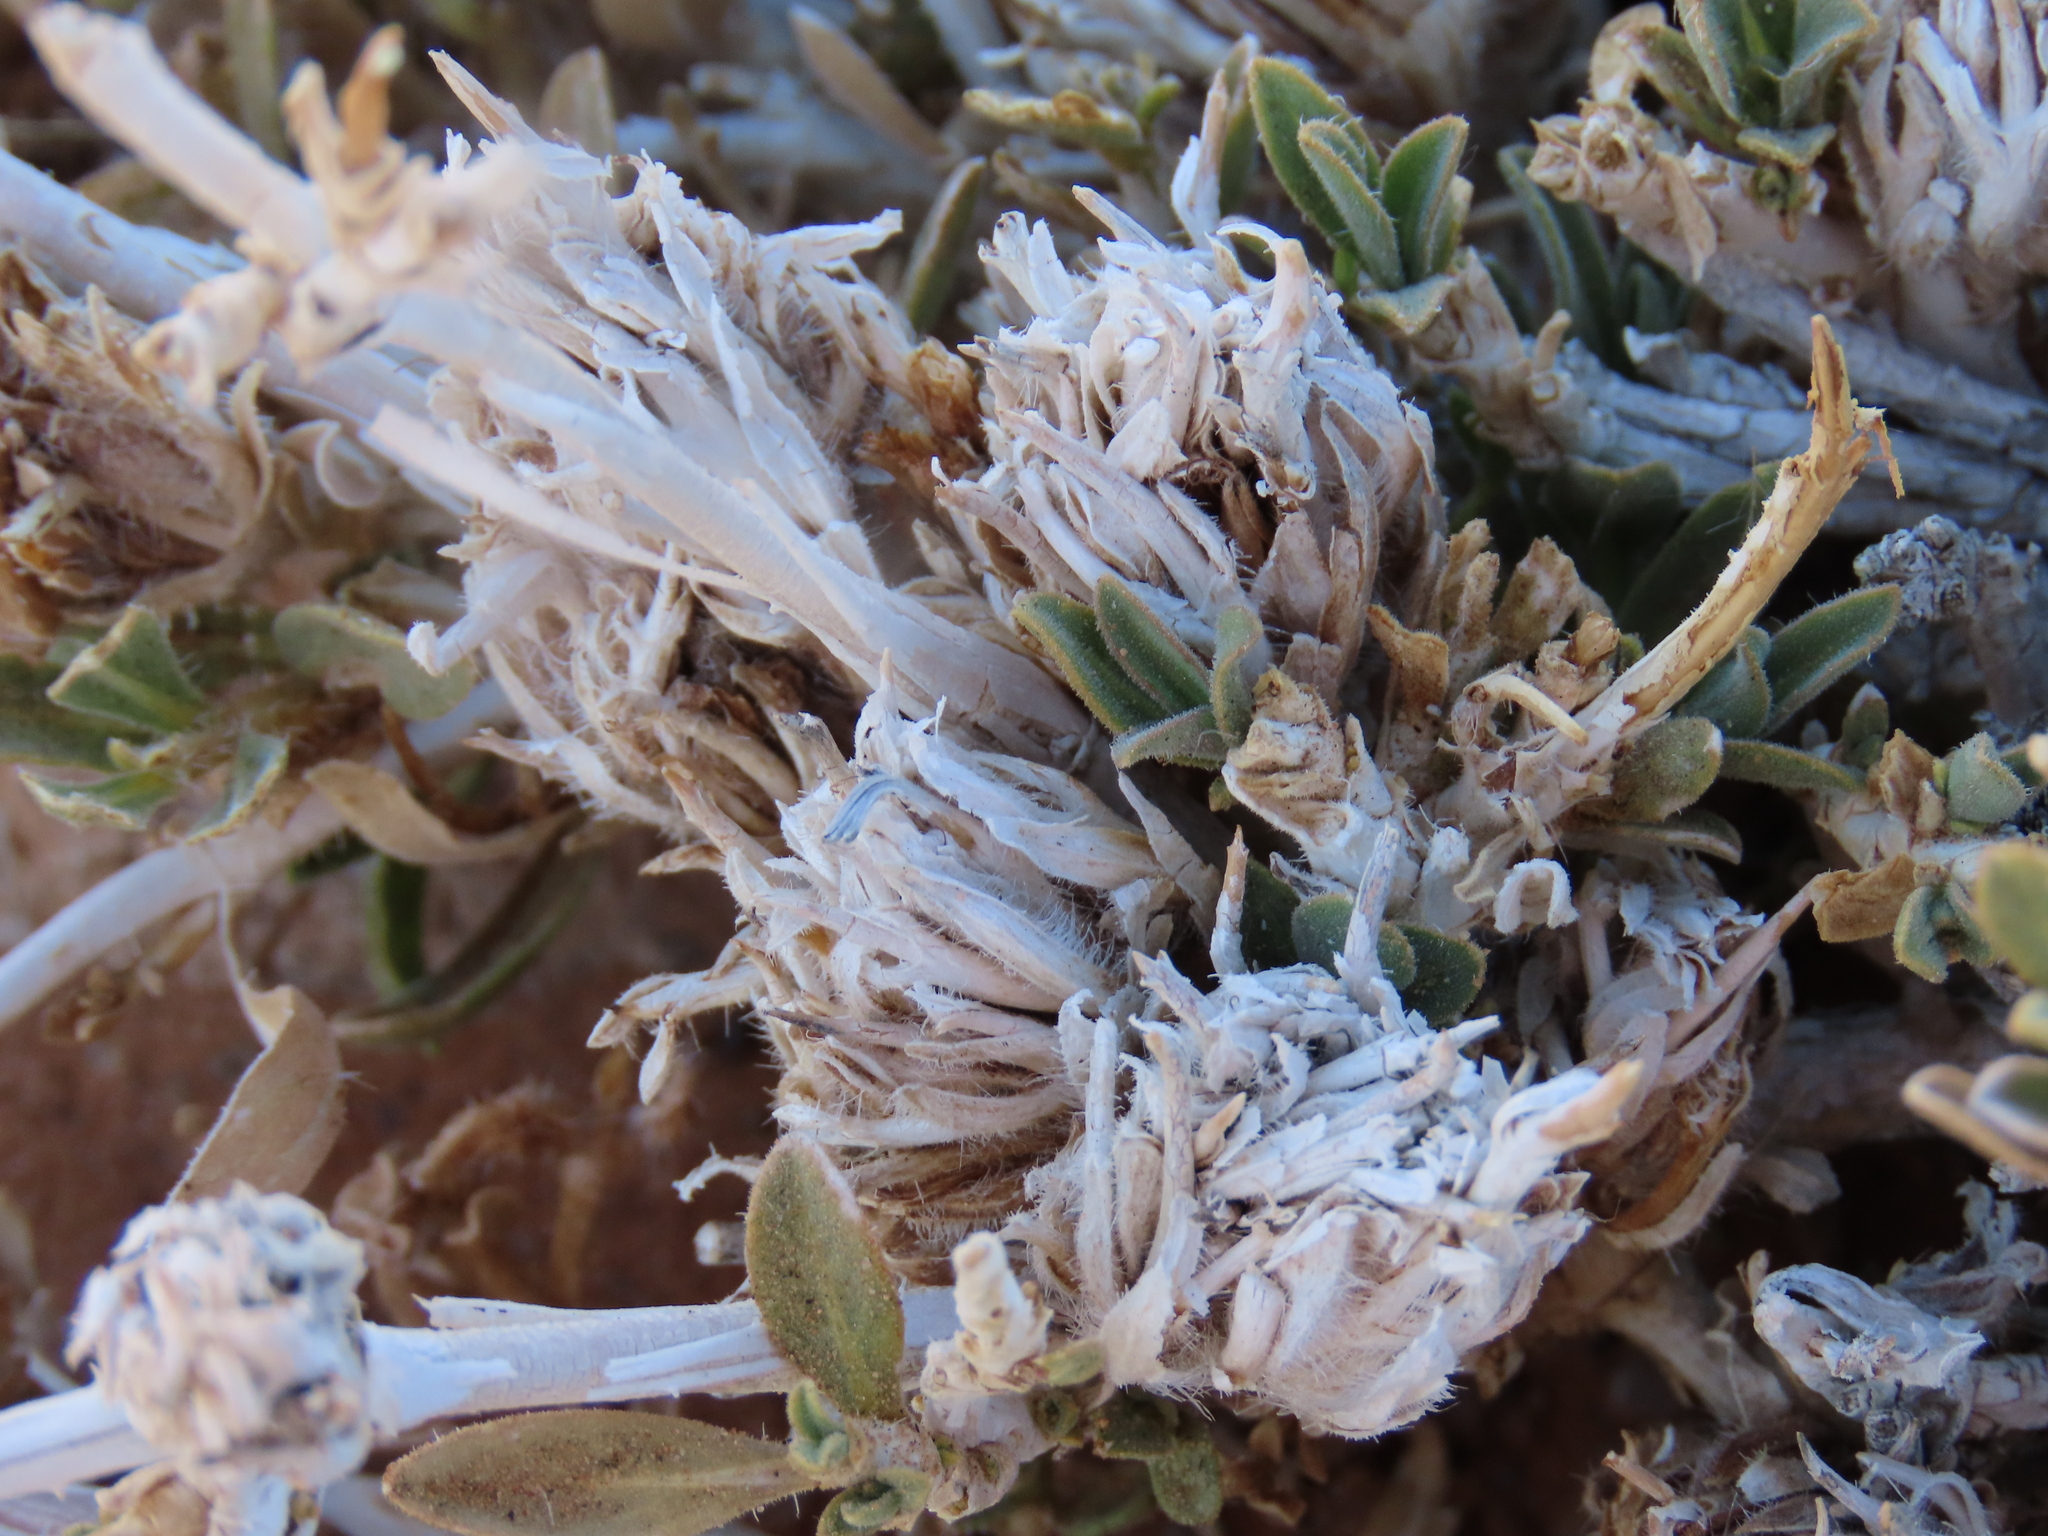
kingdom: Plantae
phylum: Tracheophyta
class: Magnoliopsida
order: Lamiales
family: Acanthaceae
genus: Petalidium
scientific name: Petalidium setosum
